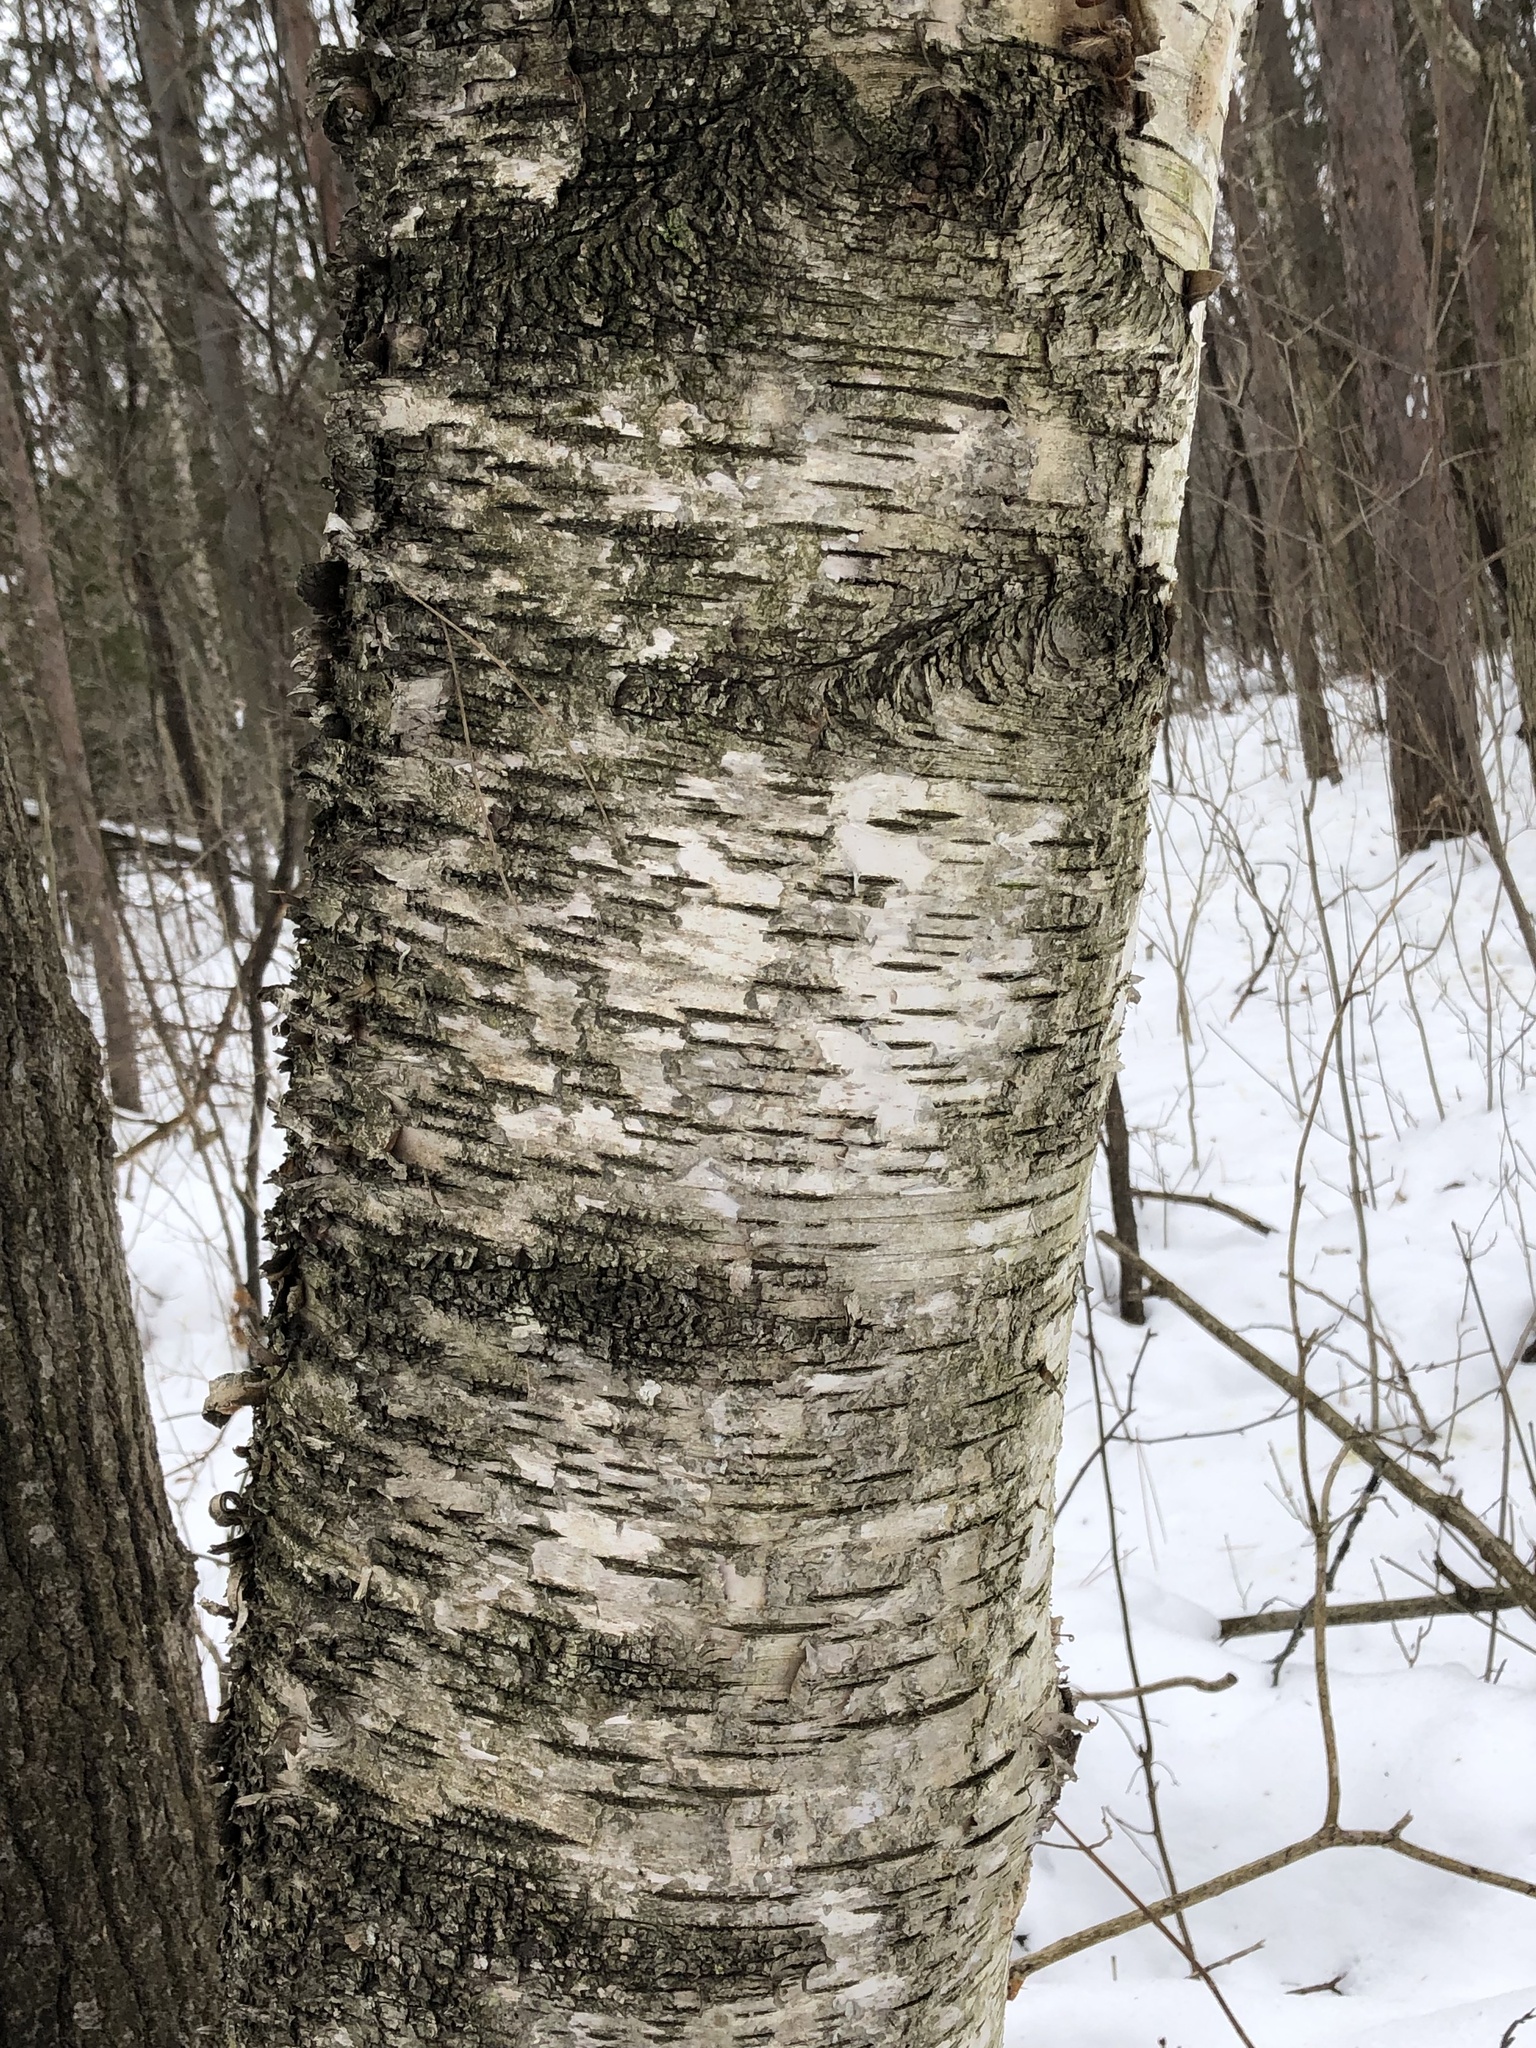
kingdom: Plantae
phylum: Tracheophyta
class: Magnoliopsida
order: Fagales
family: Betulaceae
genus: Betula
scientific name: Betula papyrifera
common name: Paper birch
